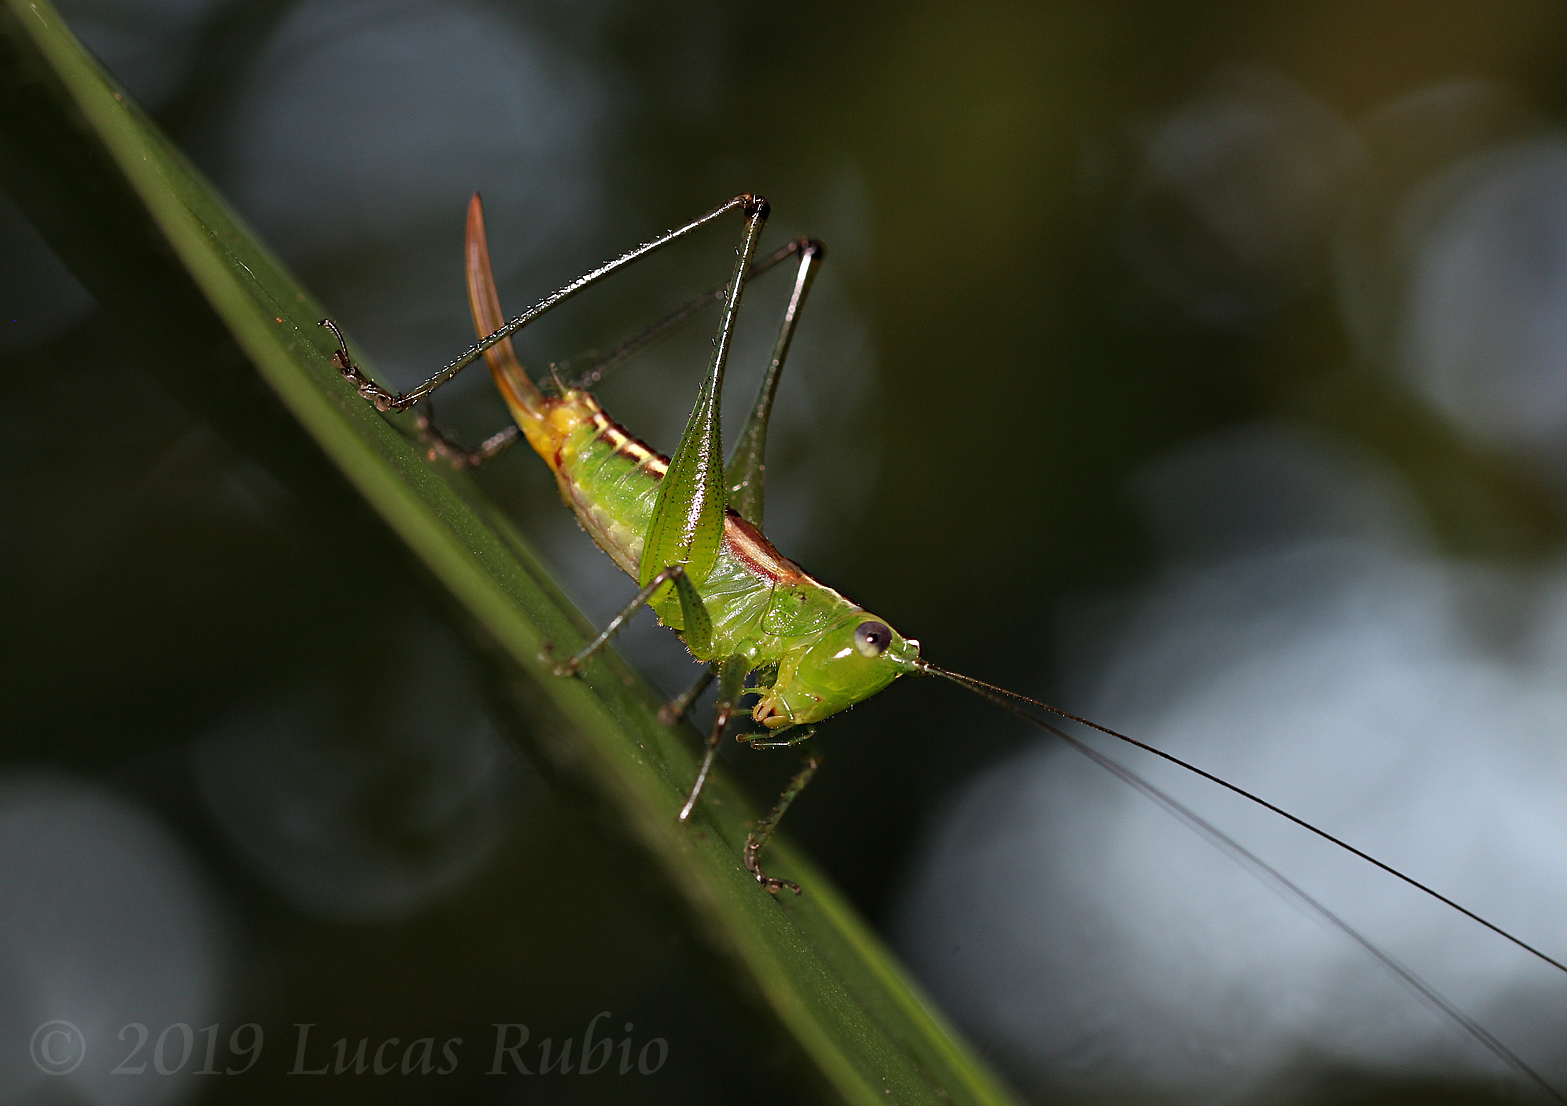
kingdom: Animalia
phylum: Arthropoda
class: Insecta
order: Orthoptera
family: Tettigoniidae
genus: Conocephalus
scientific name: Conocephalus ochrotelus
